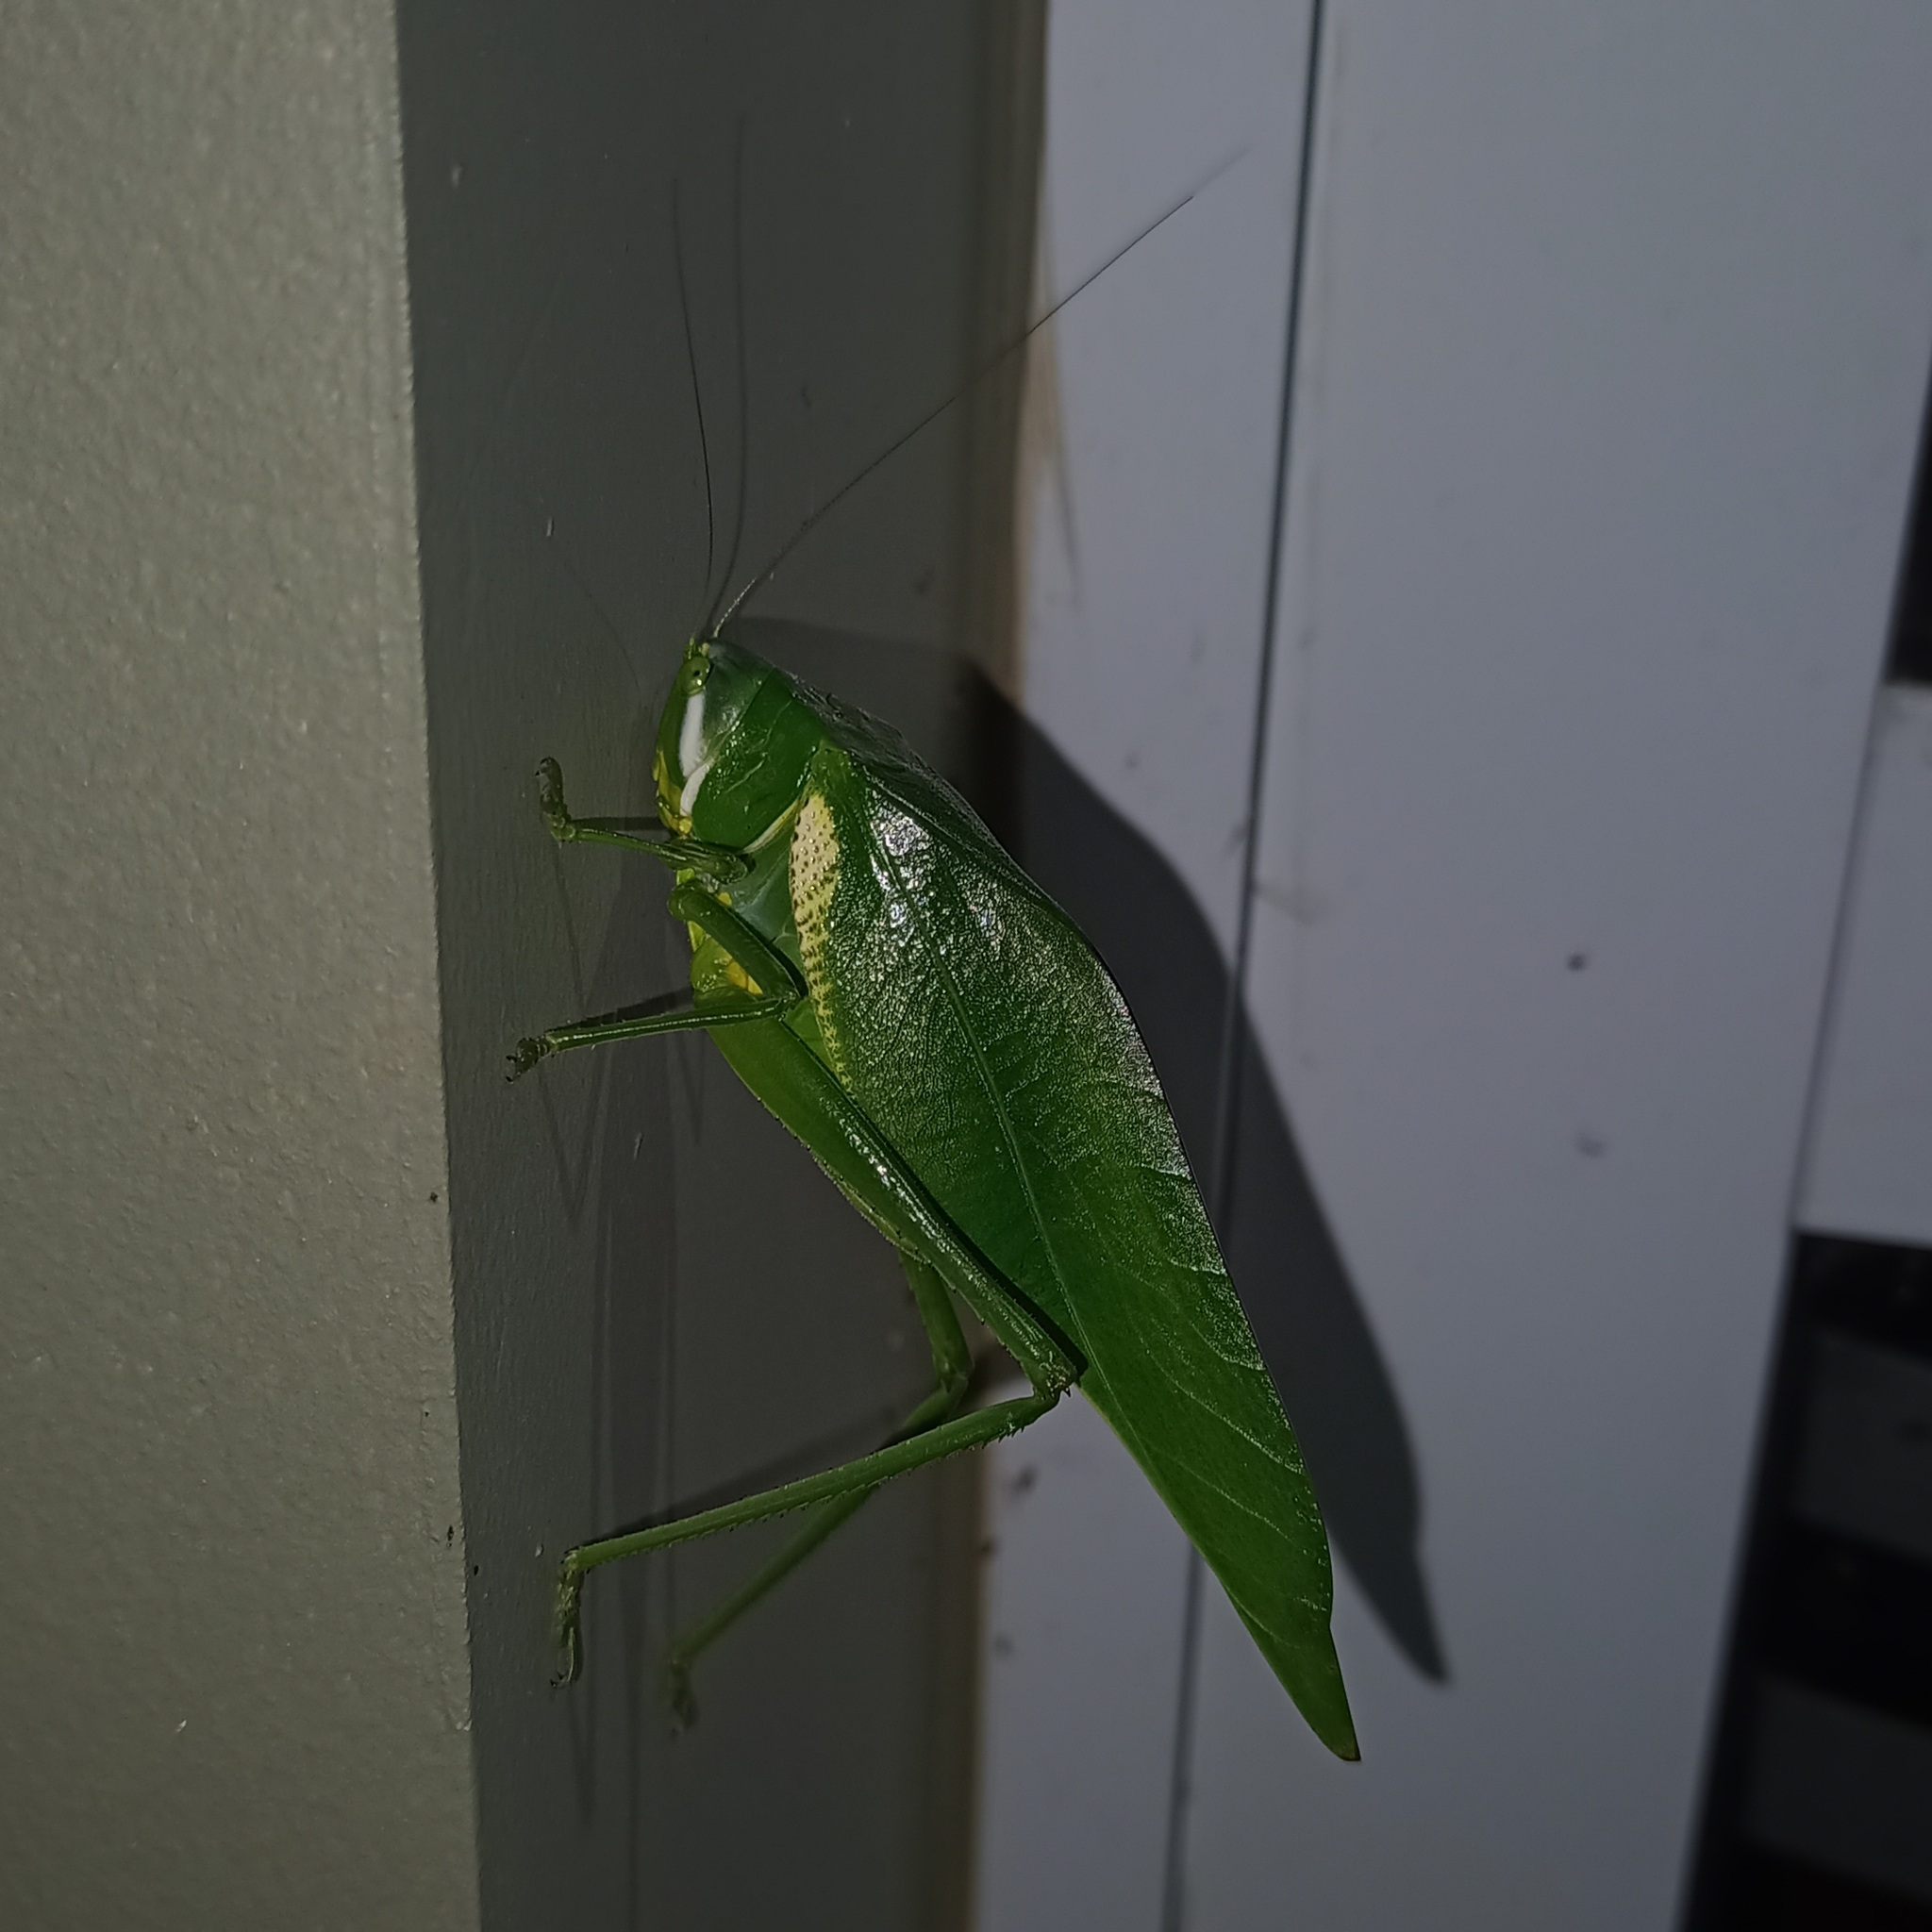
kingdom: Animalia
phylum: Arthropoda
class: Insecta
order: Orthoptera
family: Tettigoniidae
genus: Philophyllia
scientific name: Philophyllia latior
